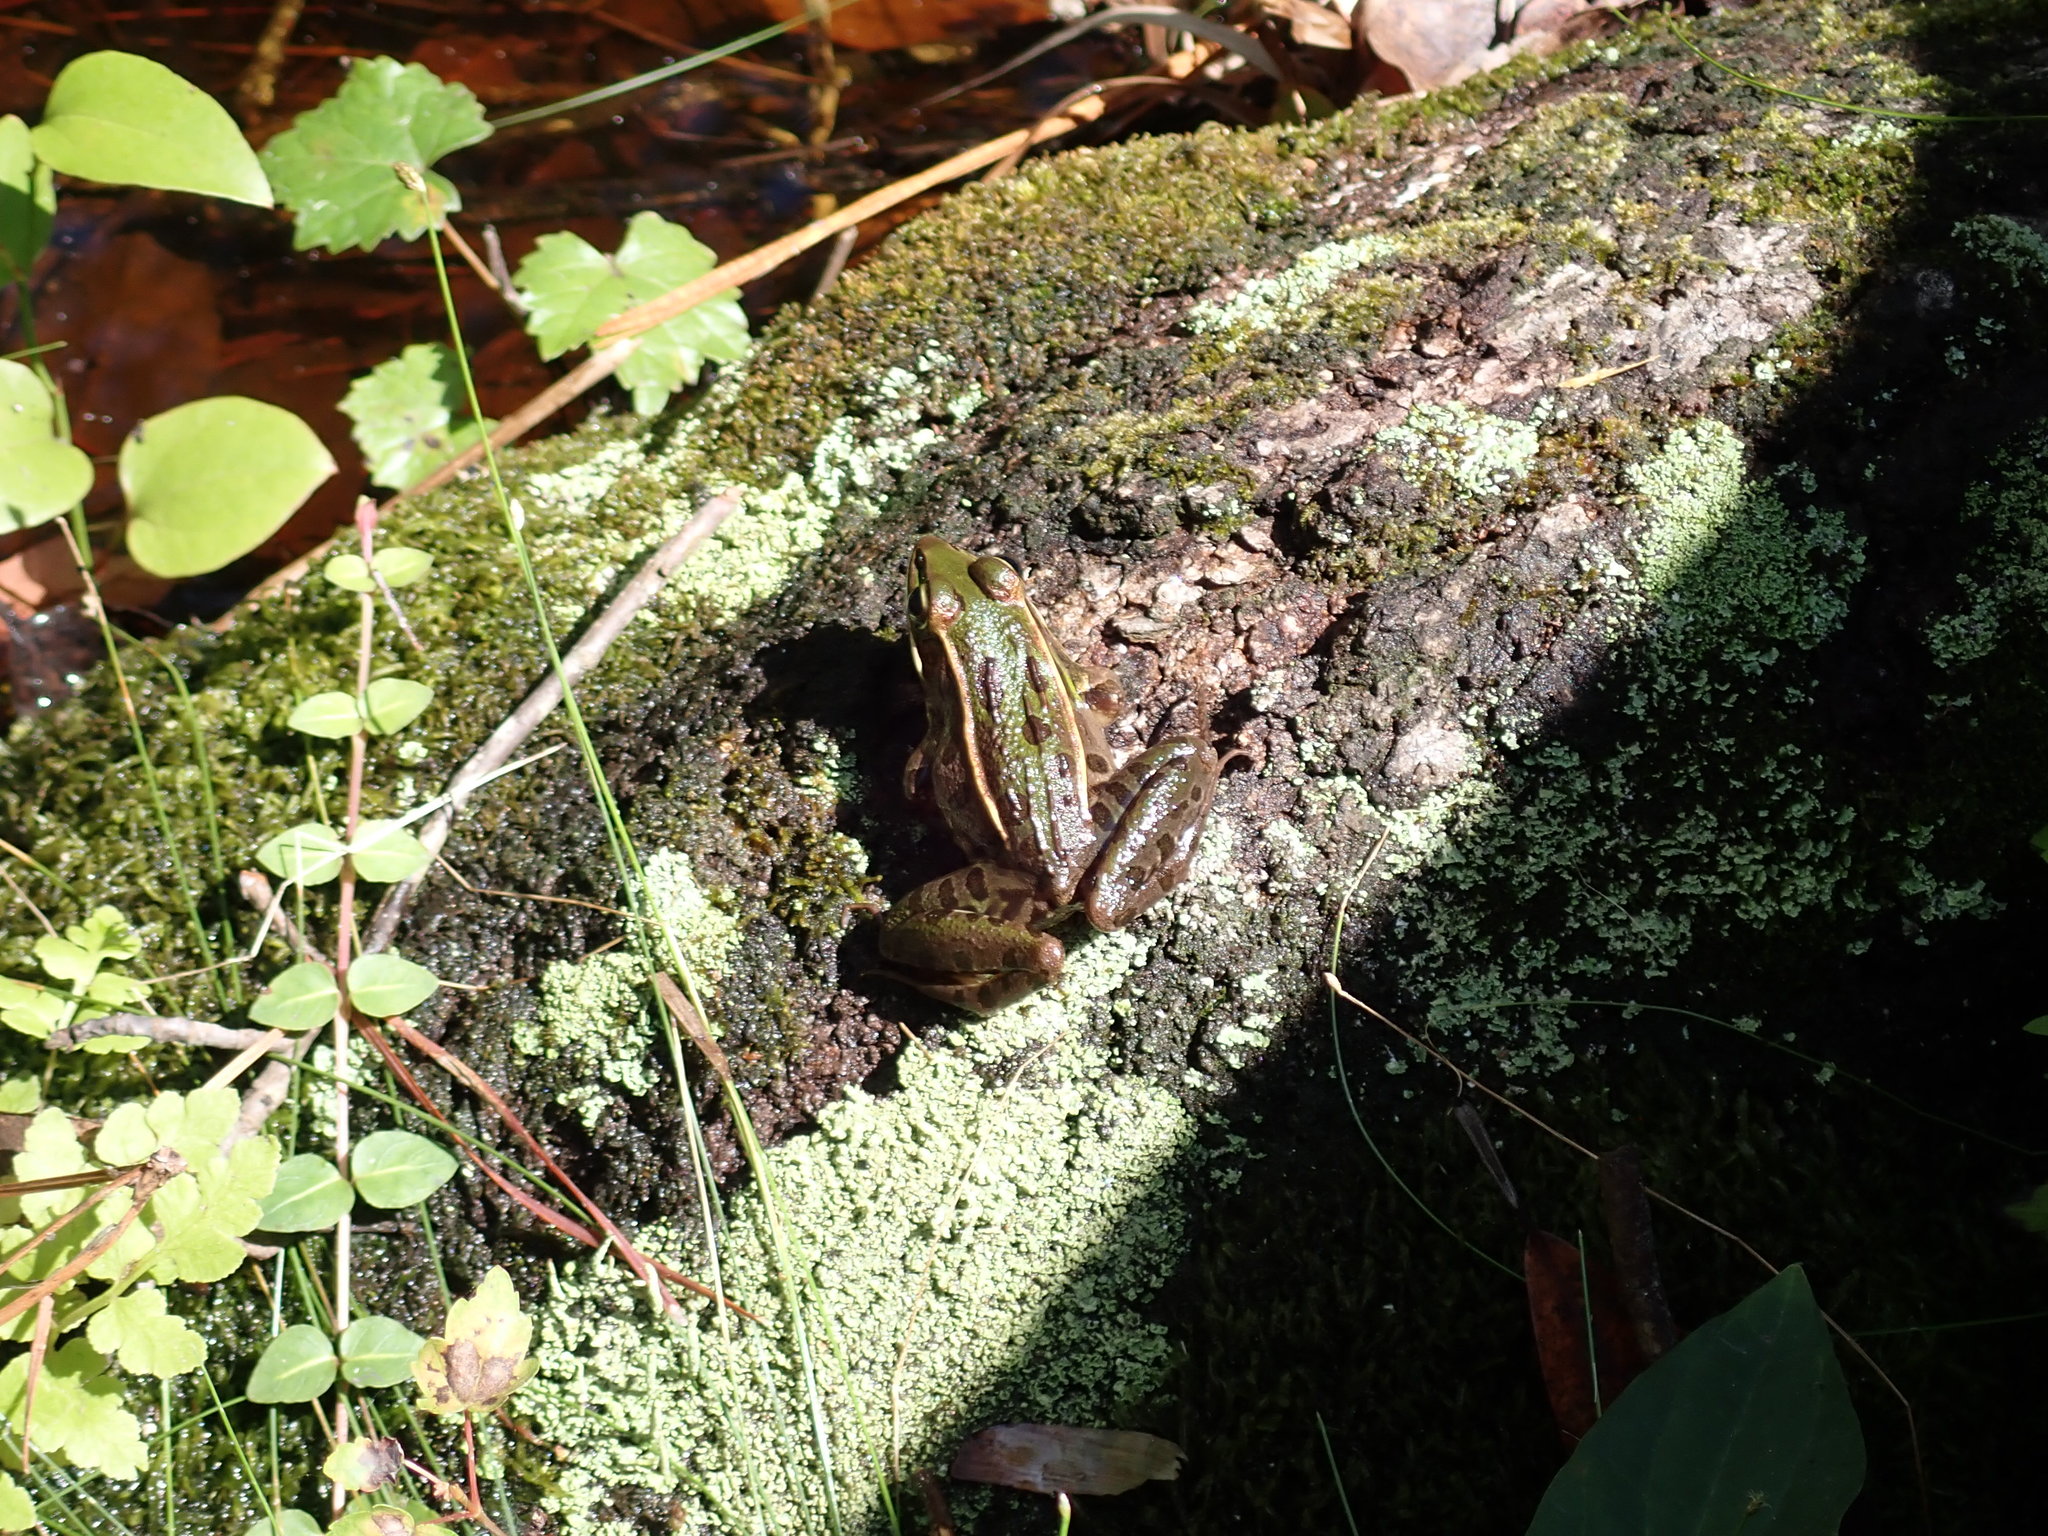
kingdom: Animalia
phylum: Chordata
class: Amphibia
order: Anura
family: Ranidae
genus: Lithobates
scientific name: Lithobates sphenocephalus
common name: Southern leopard frog
